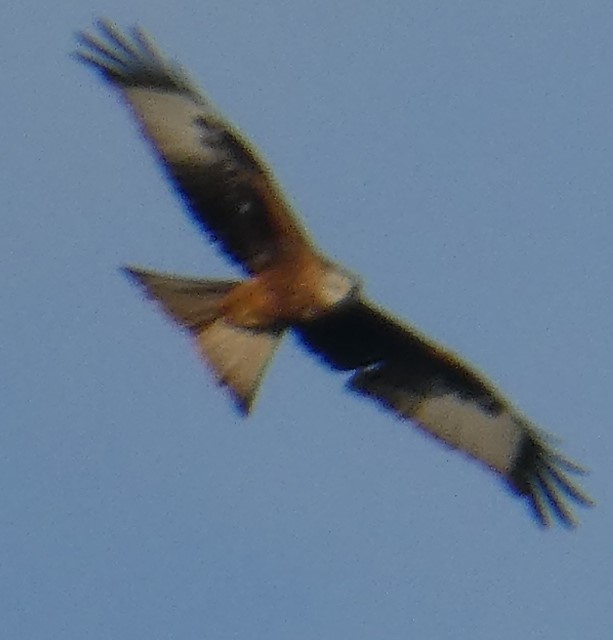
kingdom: Animalia
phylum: Chordata
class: Aves
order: Accipitriformes
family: Accipitridae
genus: Milvus
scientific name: Milvus milvus
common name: Red kite
